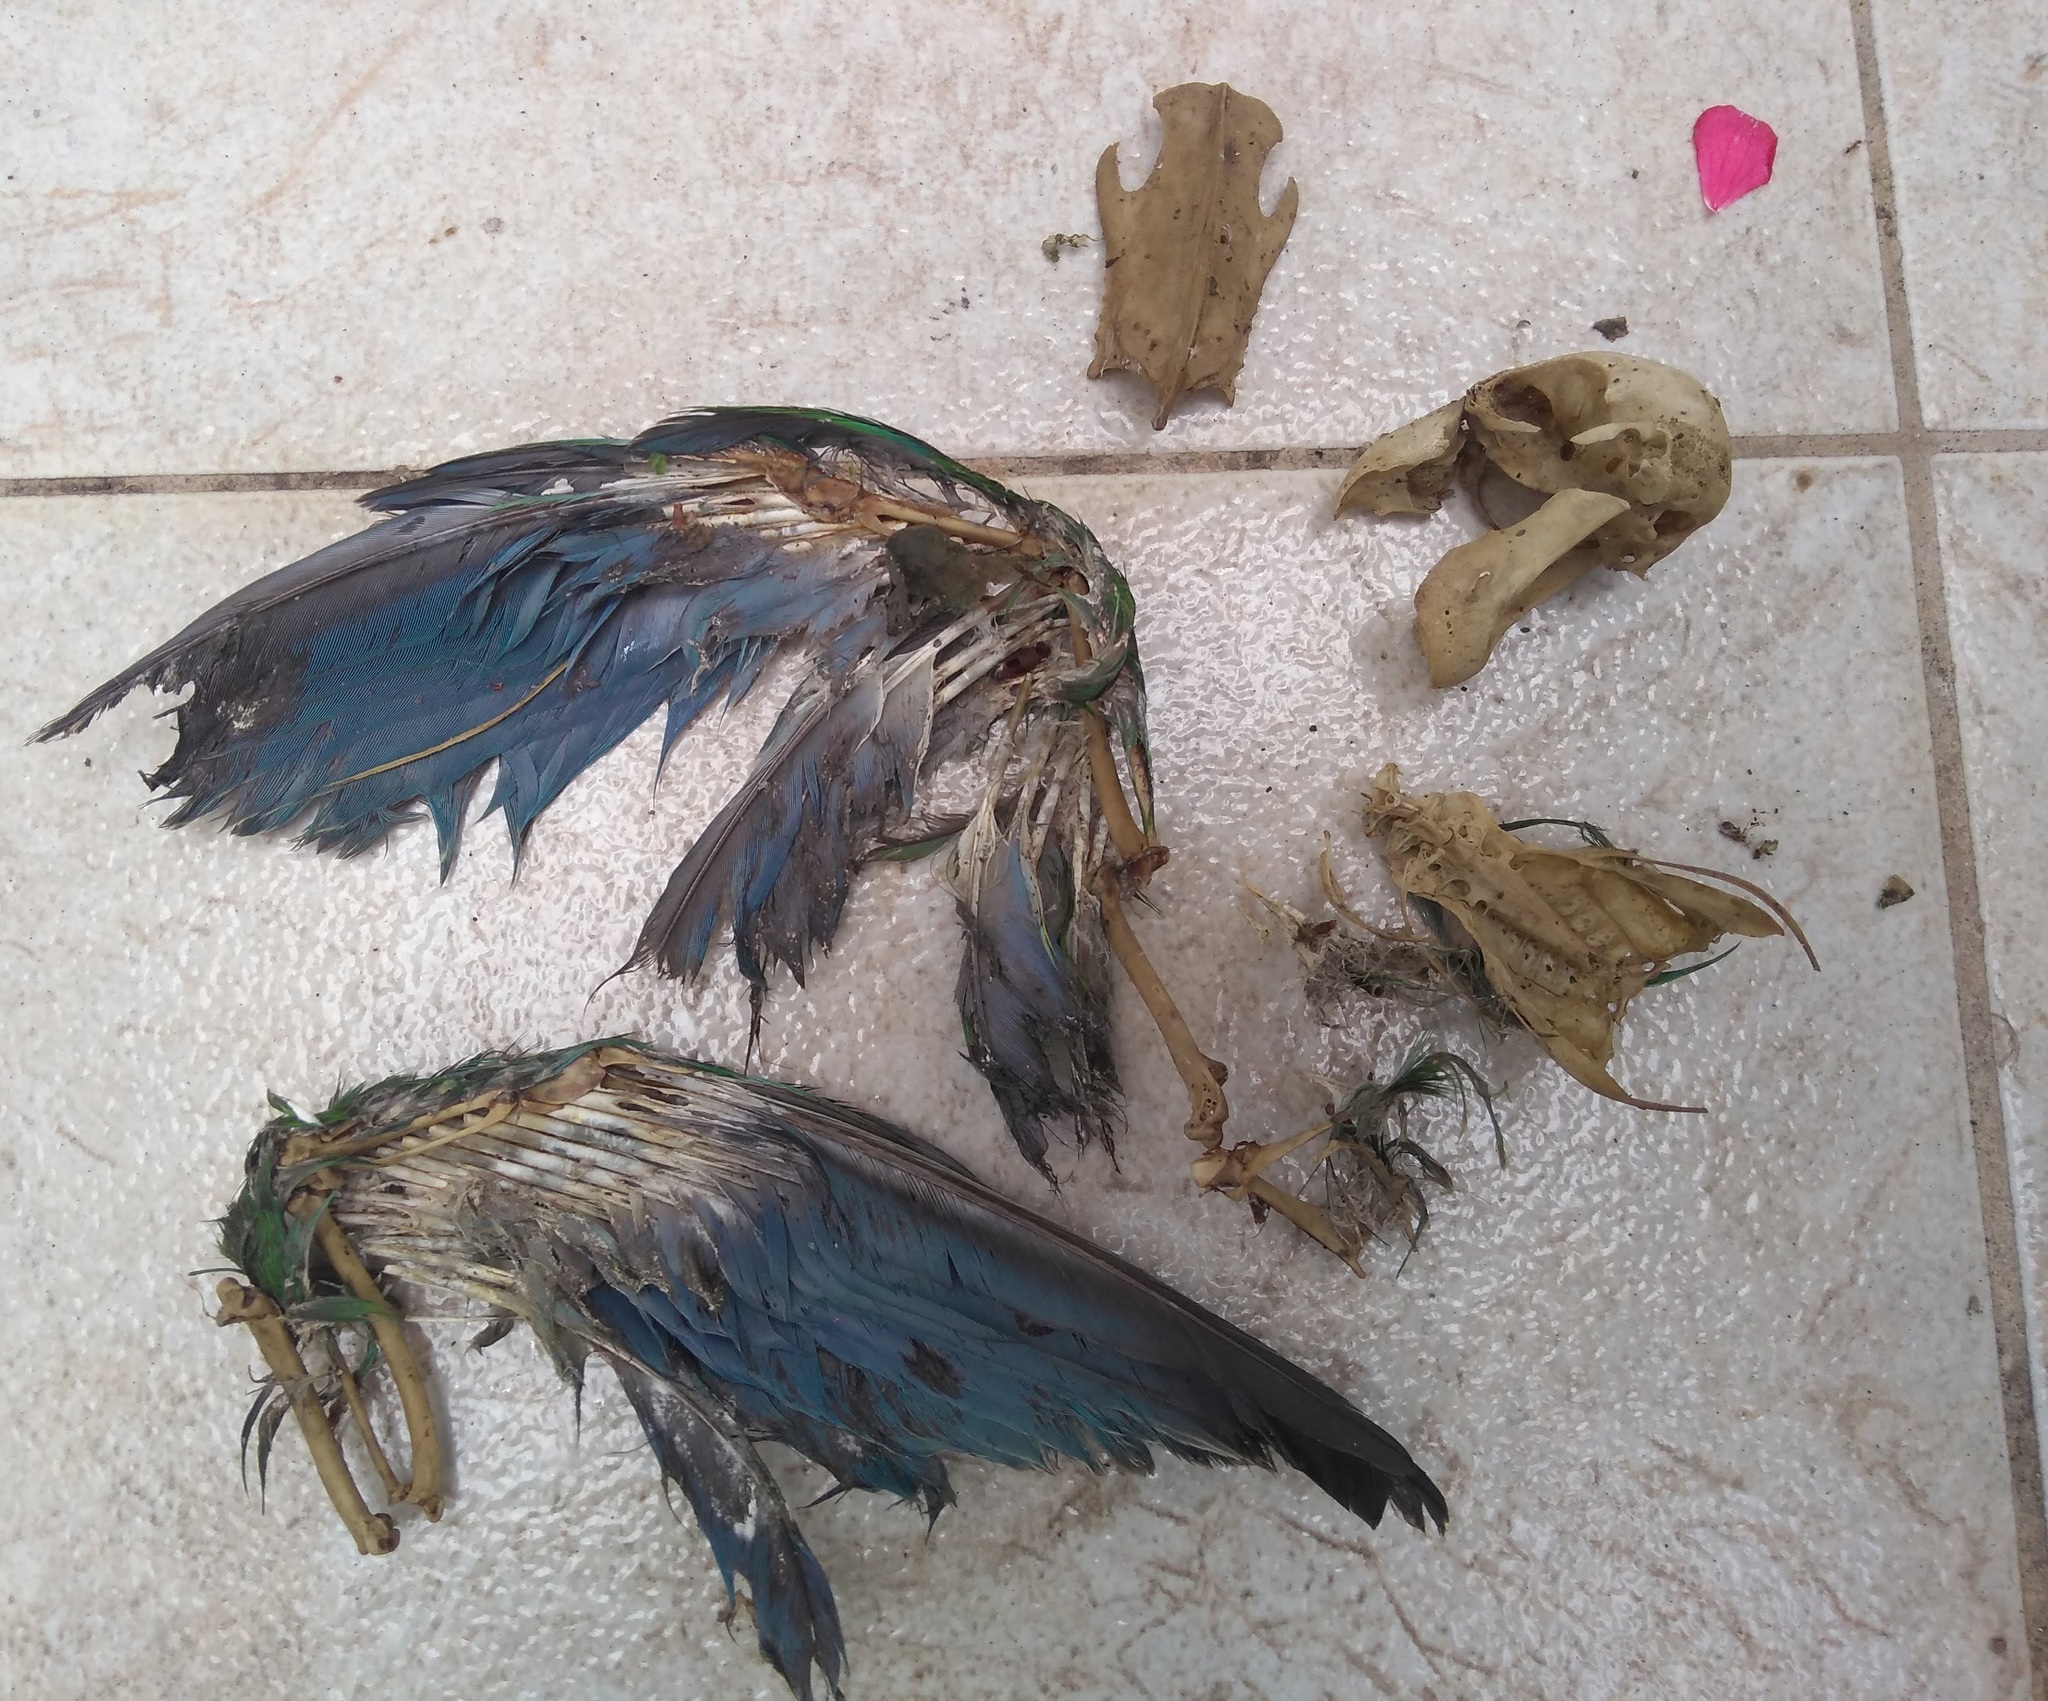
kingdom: Animalia
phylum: Chordata
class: Aves
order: Psittaciformes
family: Psittacidae
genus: Myiopsitta
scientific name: Myiopsitta monachus
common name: Monk parakeet
